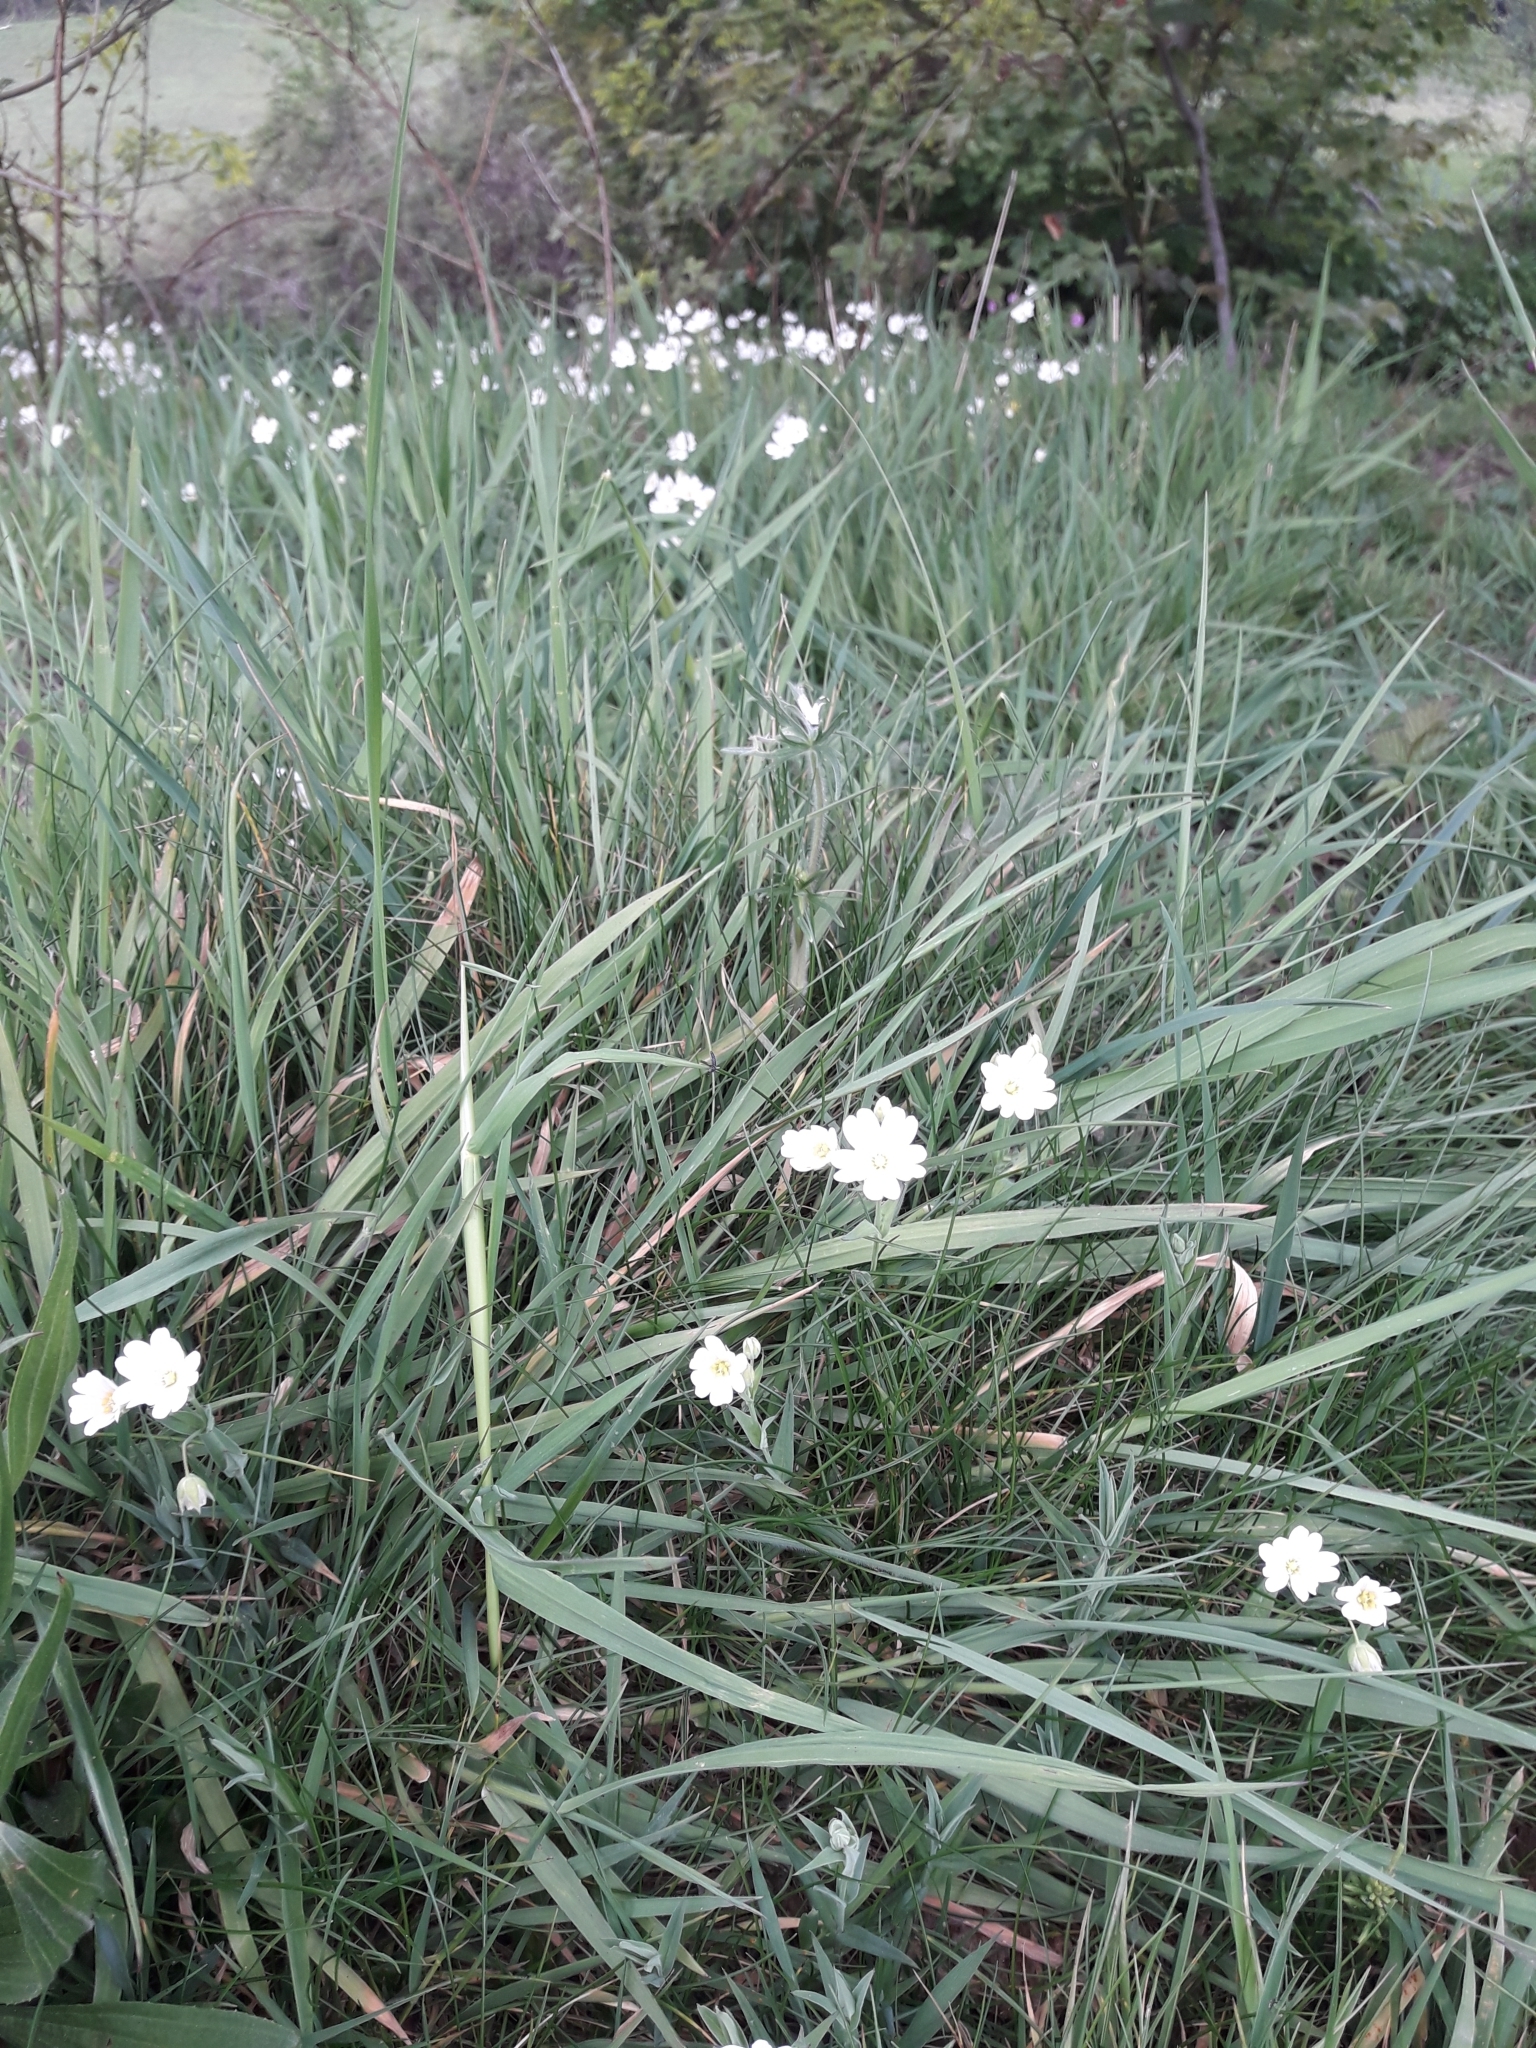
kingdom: Plantae
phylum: Tracheophyta
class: Magnoliopsida
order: Caryophyllales
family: Caryophyllaceae
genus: Rabelera
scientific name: Rabelera holostea
